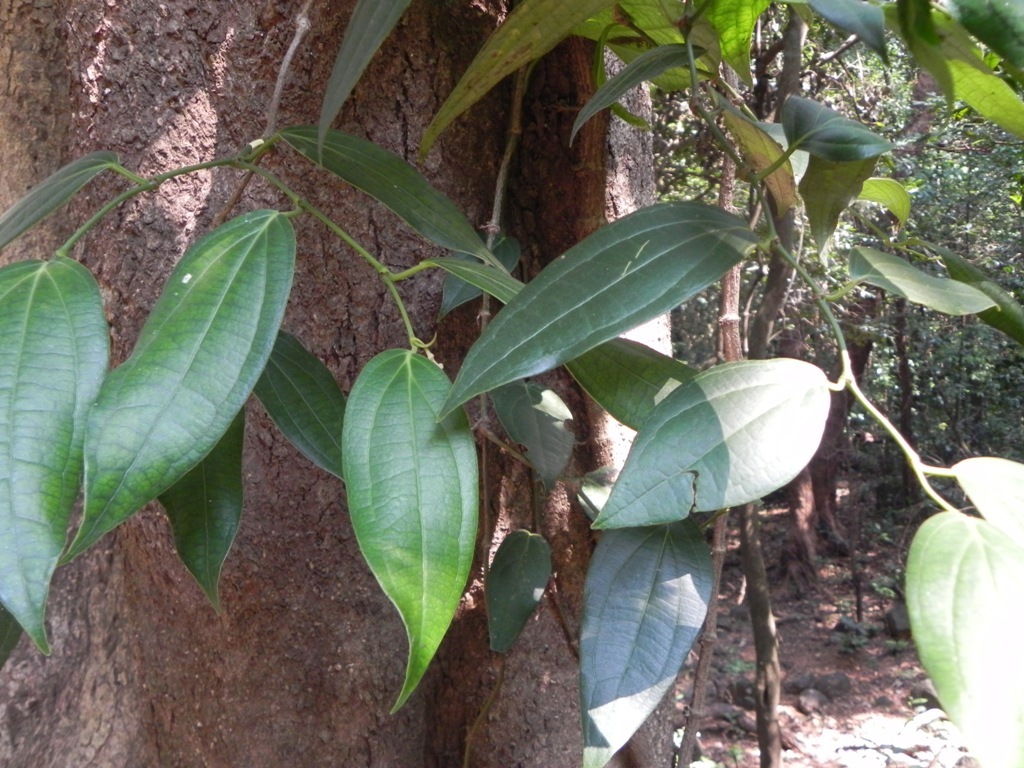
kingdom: Plantae
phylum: Tracheophyta
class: Magnoliopsida
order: Piperales
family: Piperaceae
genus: Piper
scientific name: Piper dravidii
